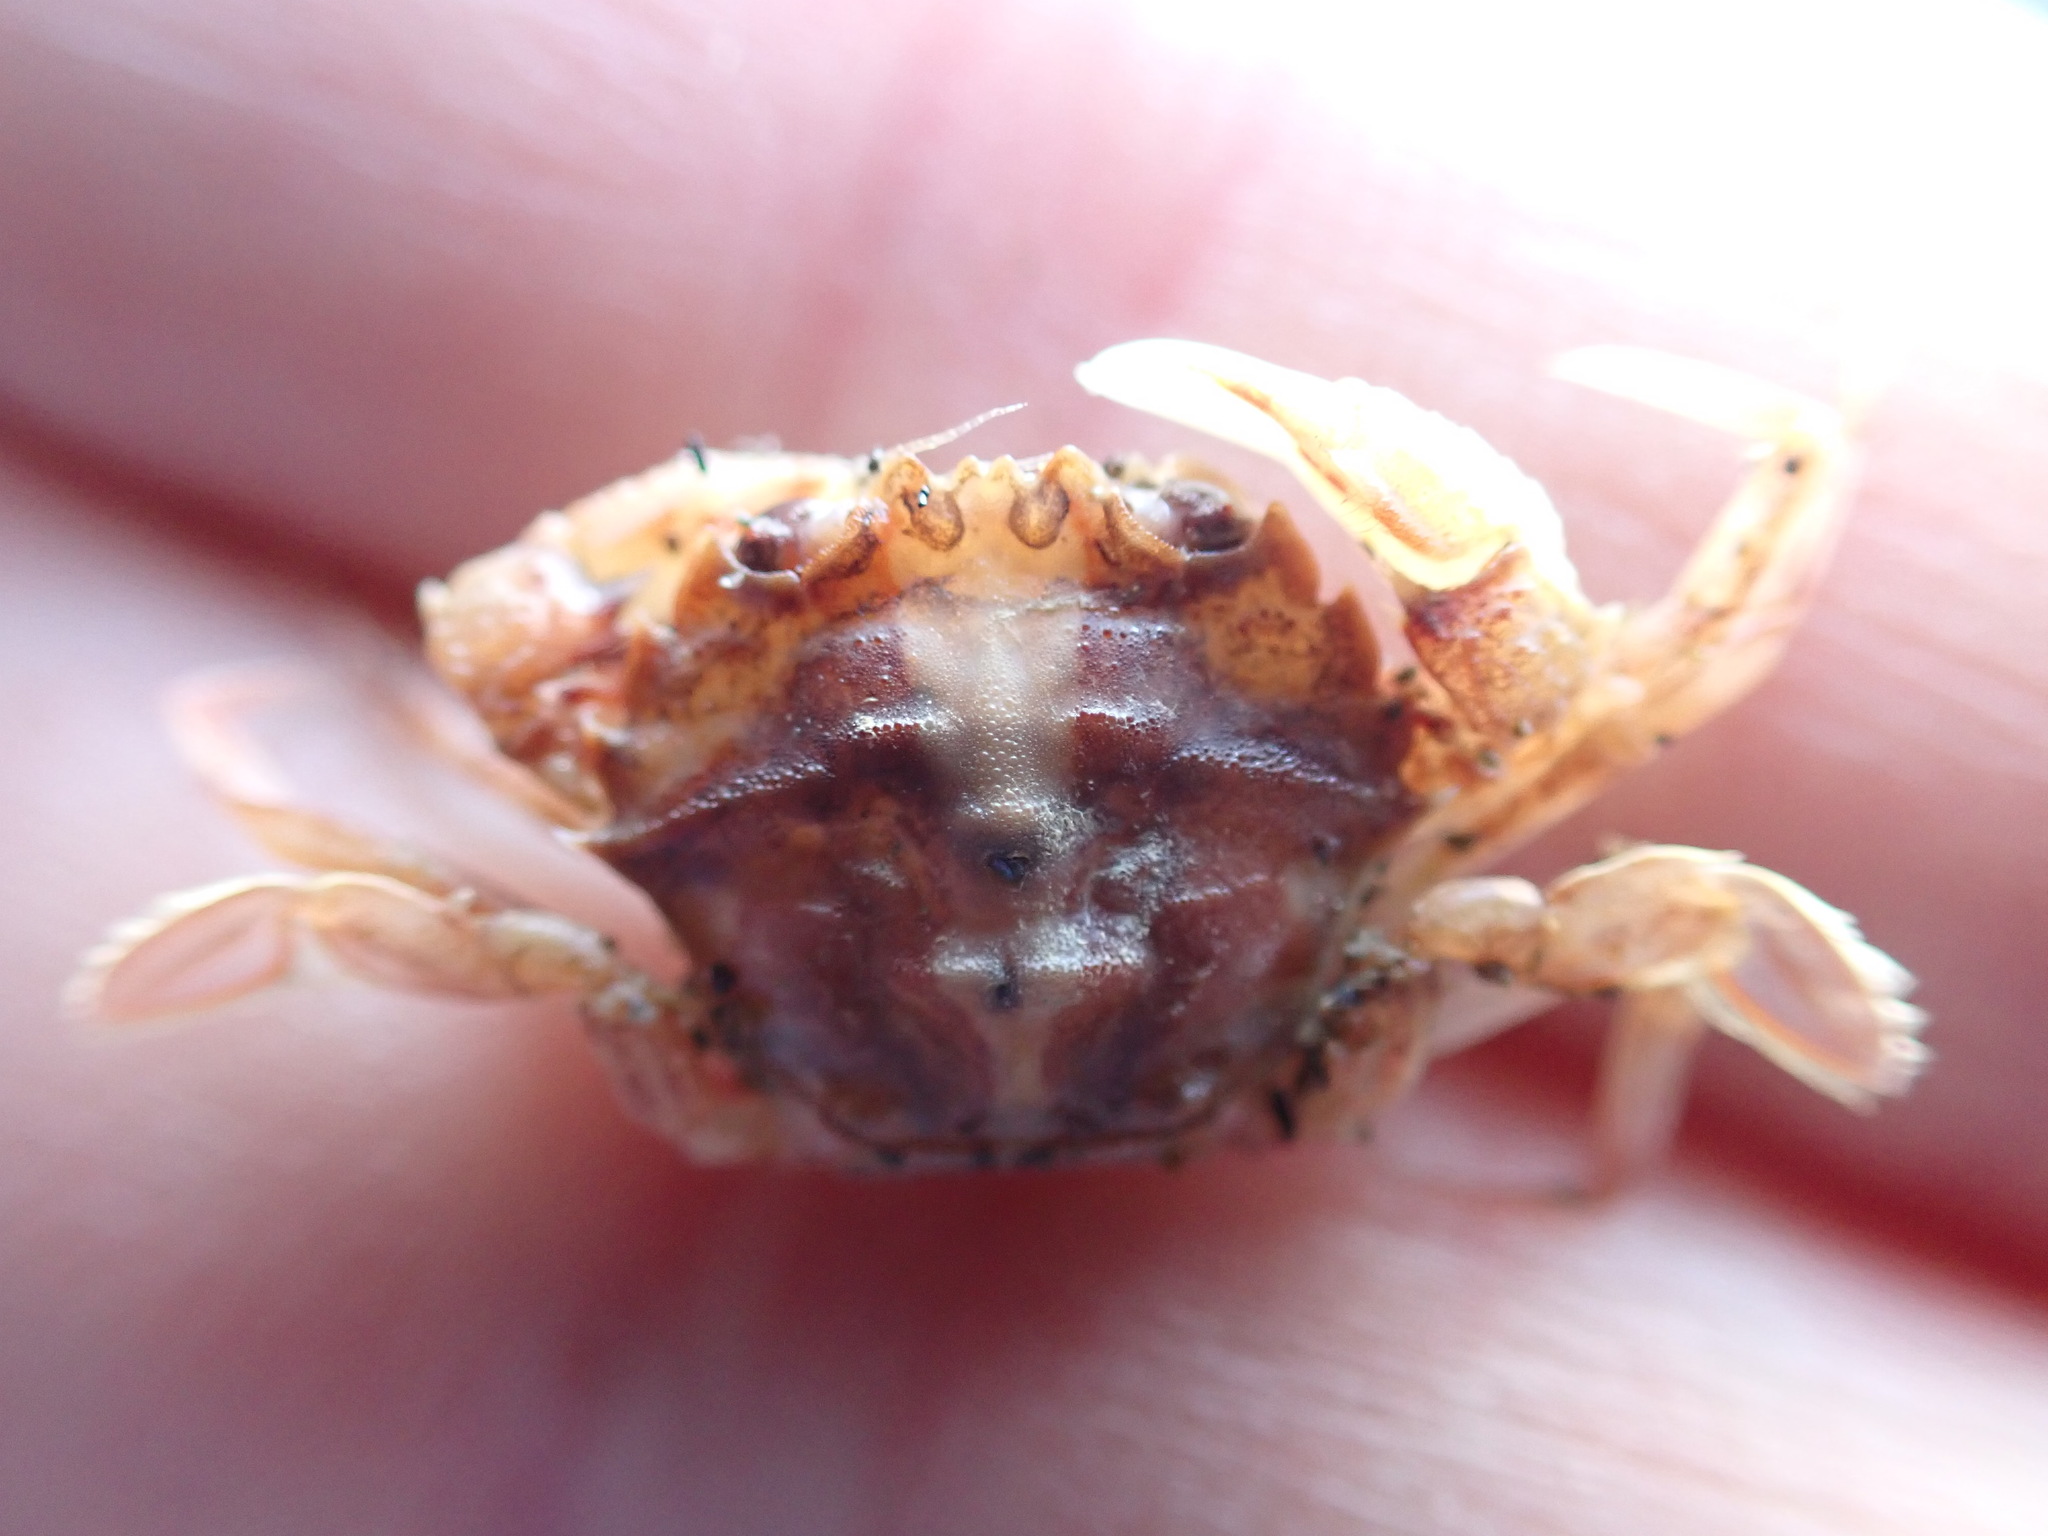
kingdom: Animalia
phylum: Arthropoda
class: Malacostraca
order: Decapoda
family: Geryonidae
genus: Nectocarcinus
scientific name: Nectocarcinus antarcticus
